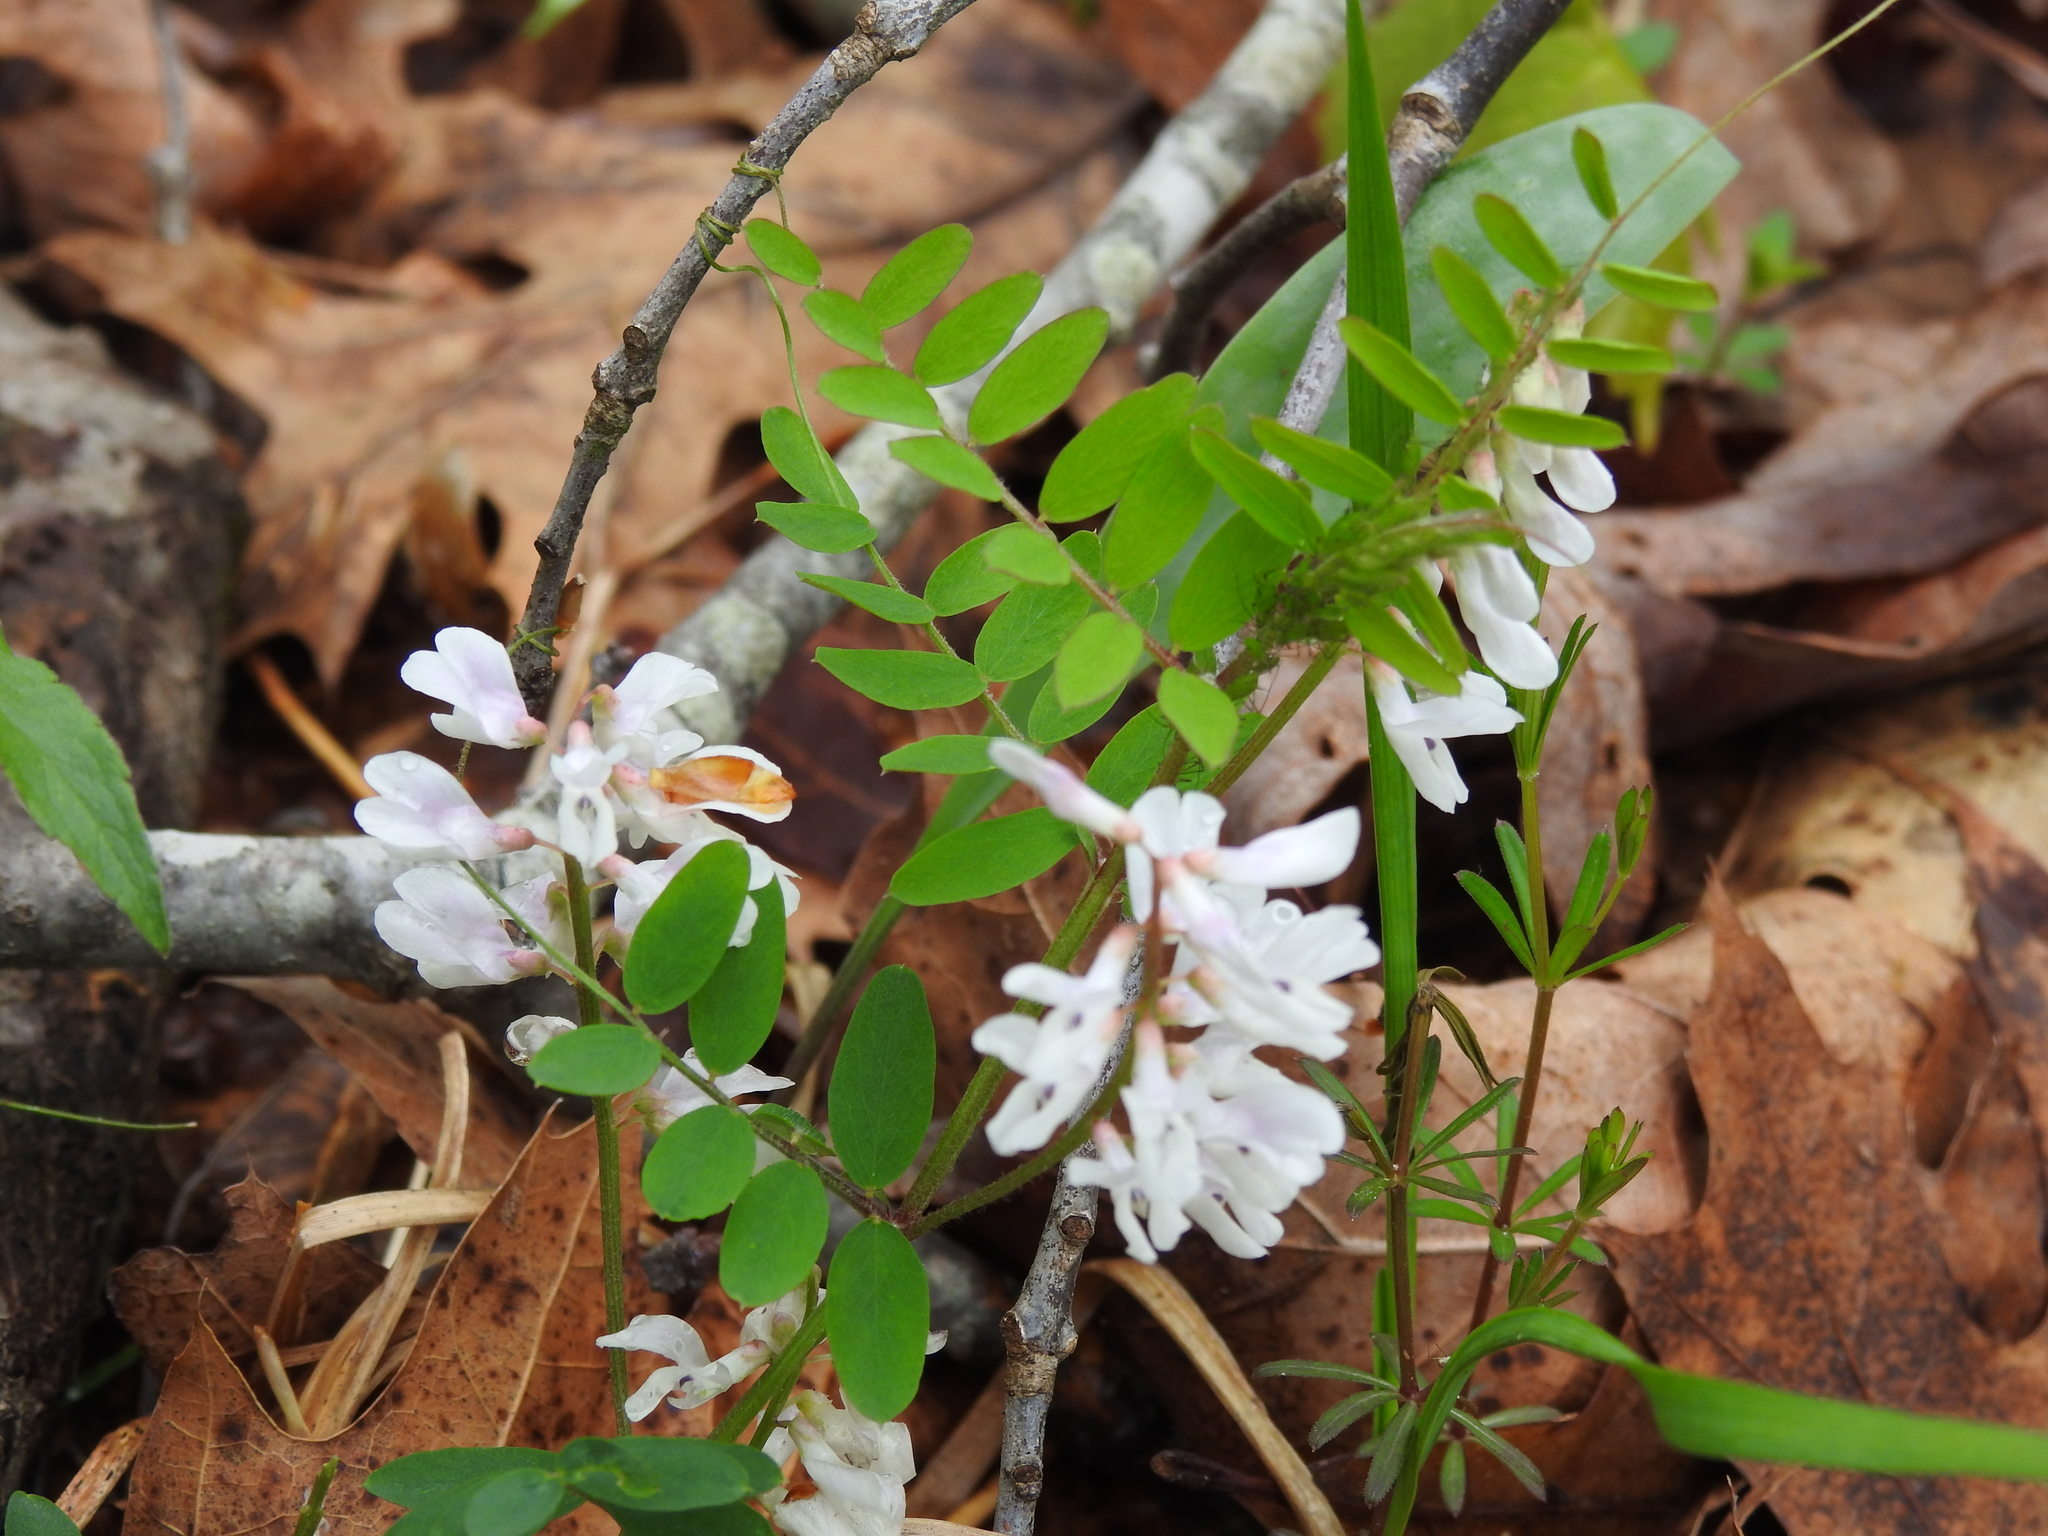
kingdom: Plantae
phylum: Tracheophyta
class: Magnoliopsida
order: Fabales
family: Fabaceae
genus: Vicia
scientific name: Vicia caroliniana
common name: Carolina vetch
